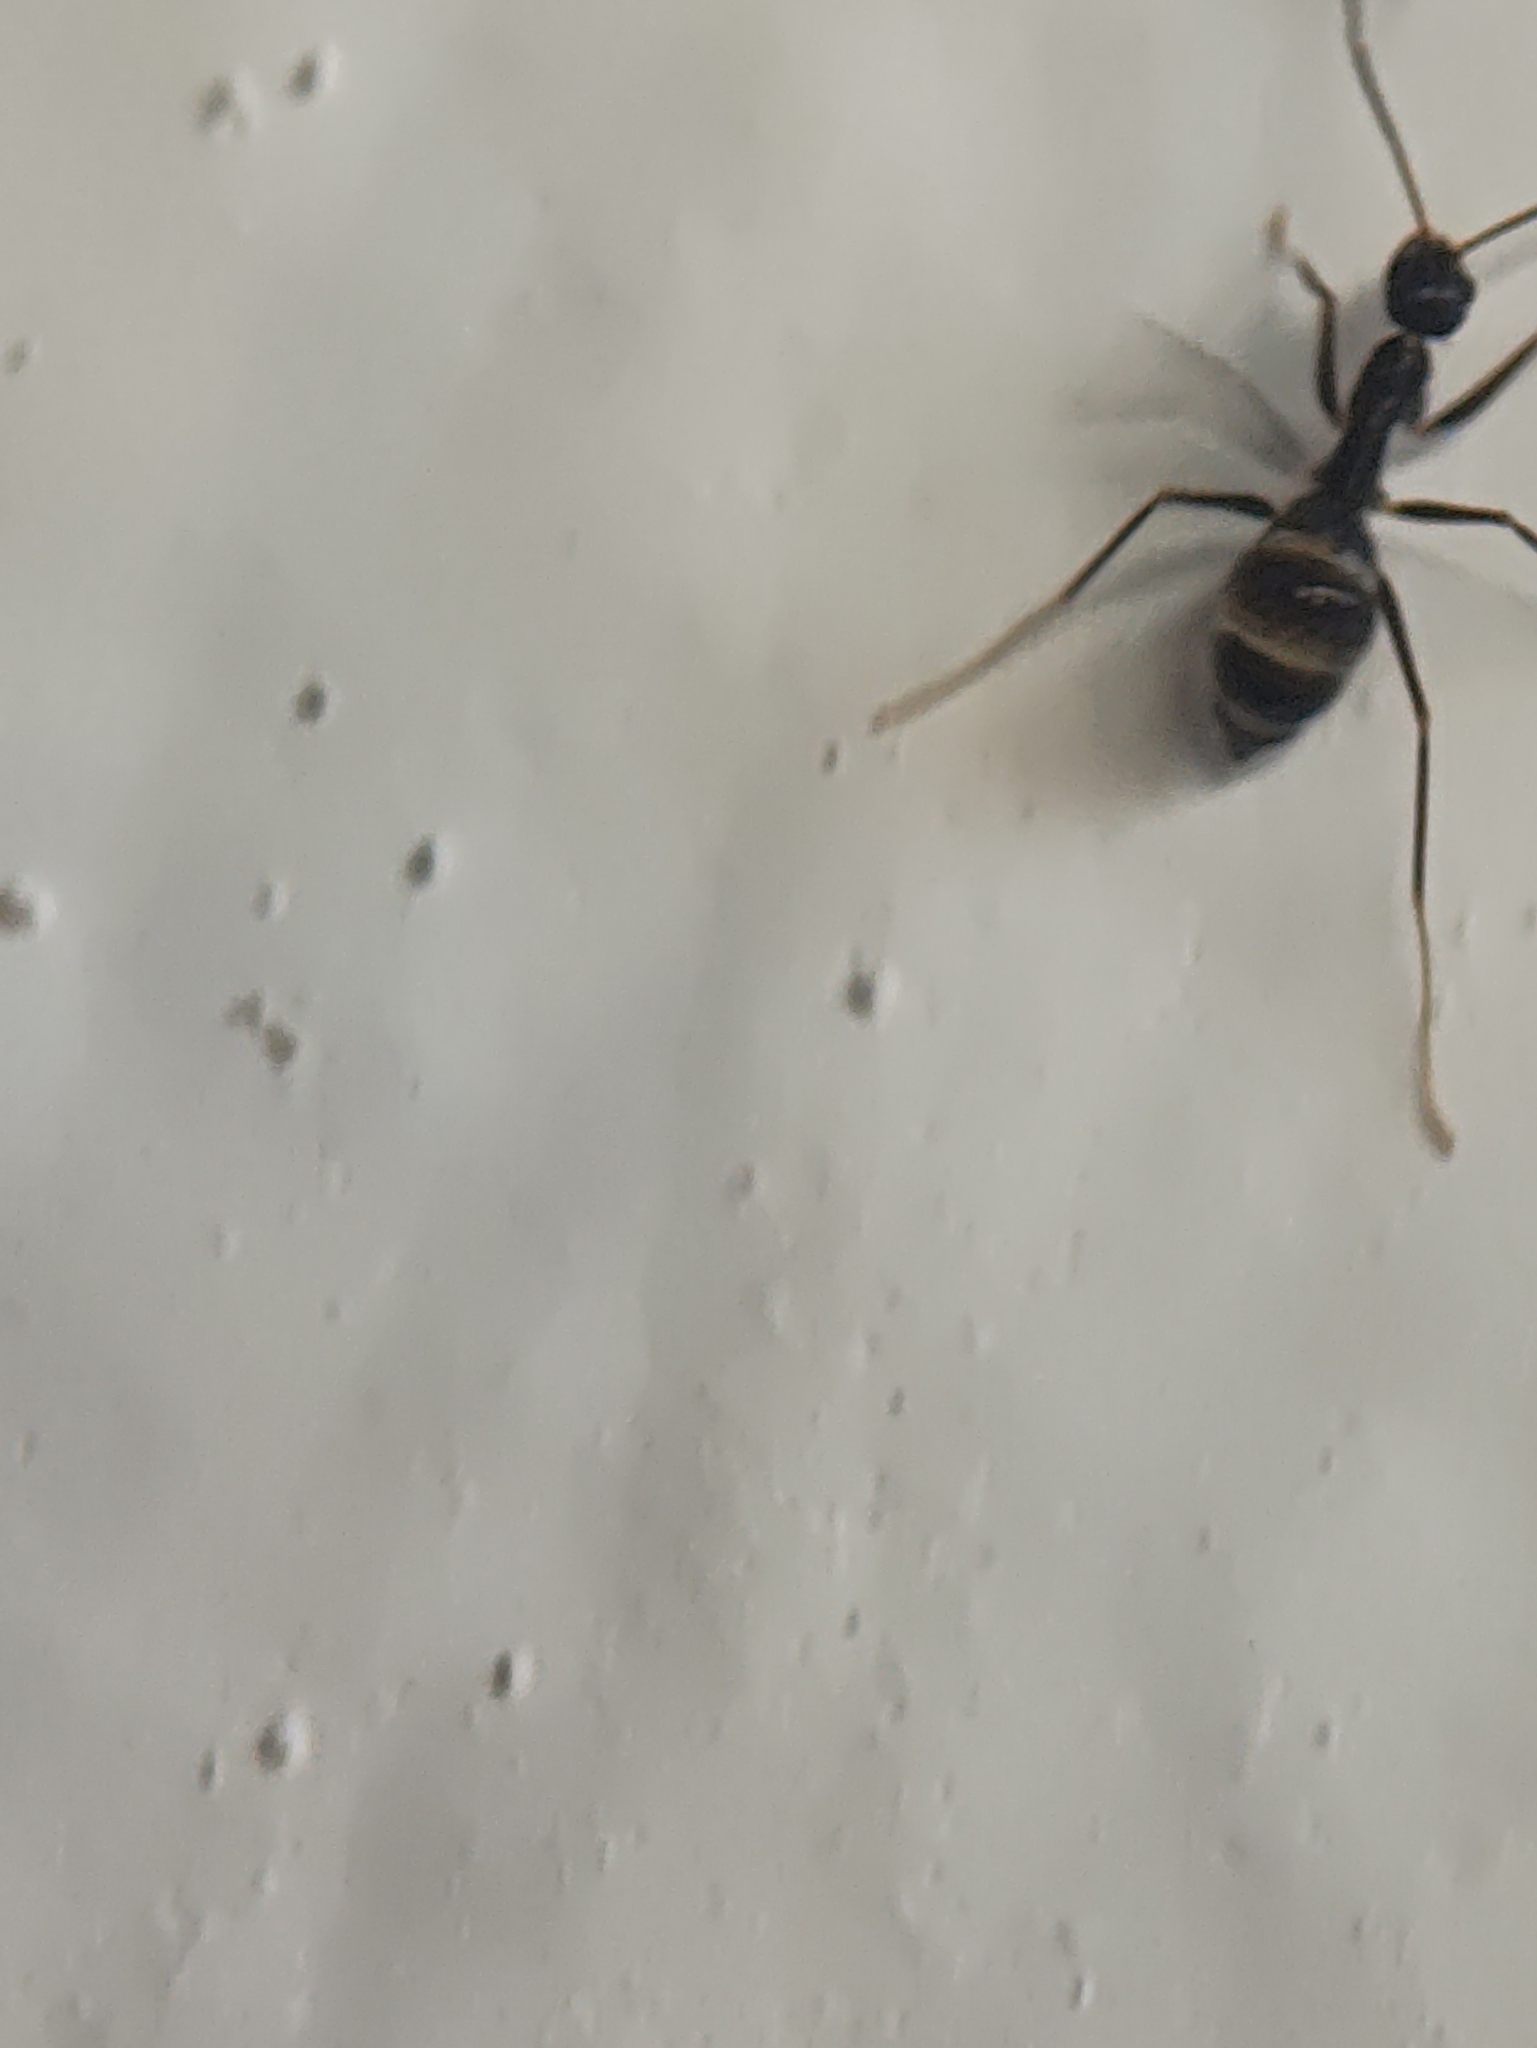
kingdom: Animalia
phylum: Arthropoda
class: Insecta
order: Hymenoptera
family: Formicidae
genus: Paratrechina
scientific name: Paratrechina longicornis
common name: Longhorned crazy ant
